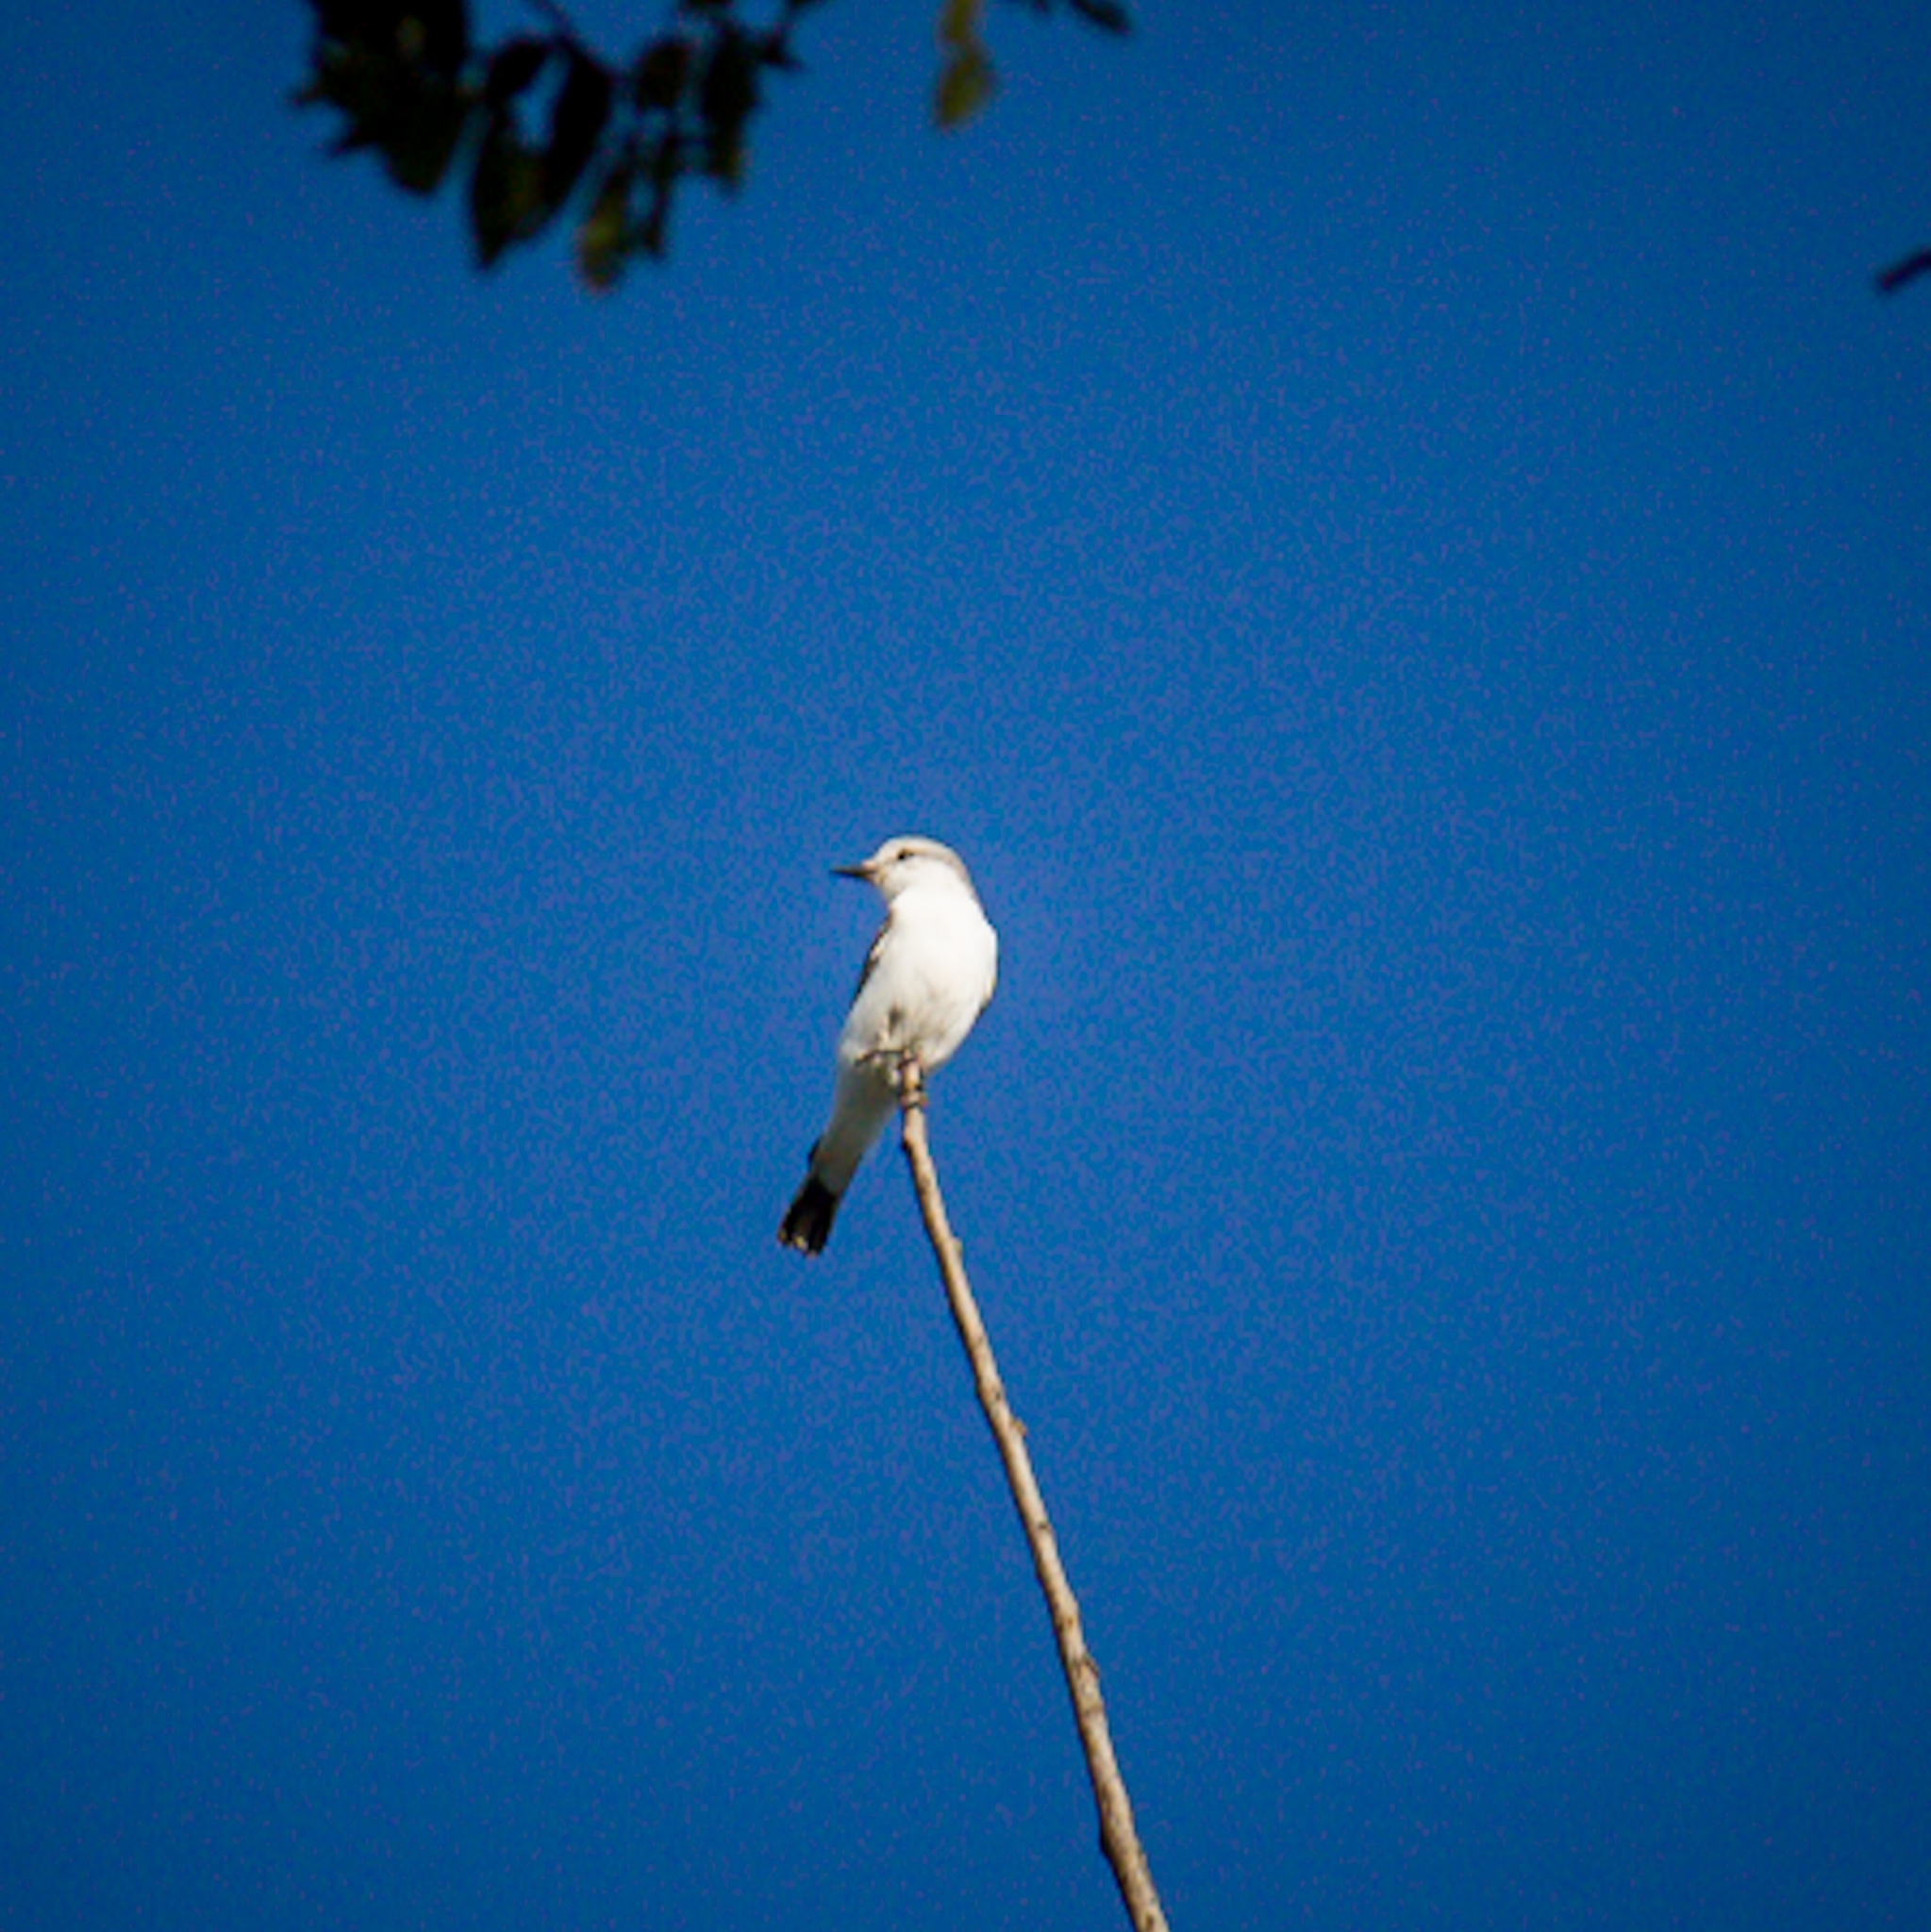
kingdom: Animalia
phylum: Chordata
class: Aves
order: Passeriformes
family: Tyrannidae
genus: Xolmis
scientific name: Xolmis velatus
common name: White-rumped monjita
